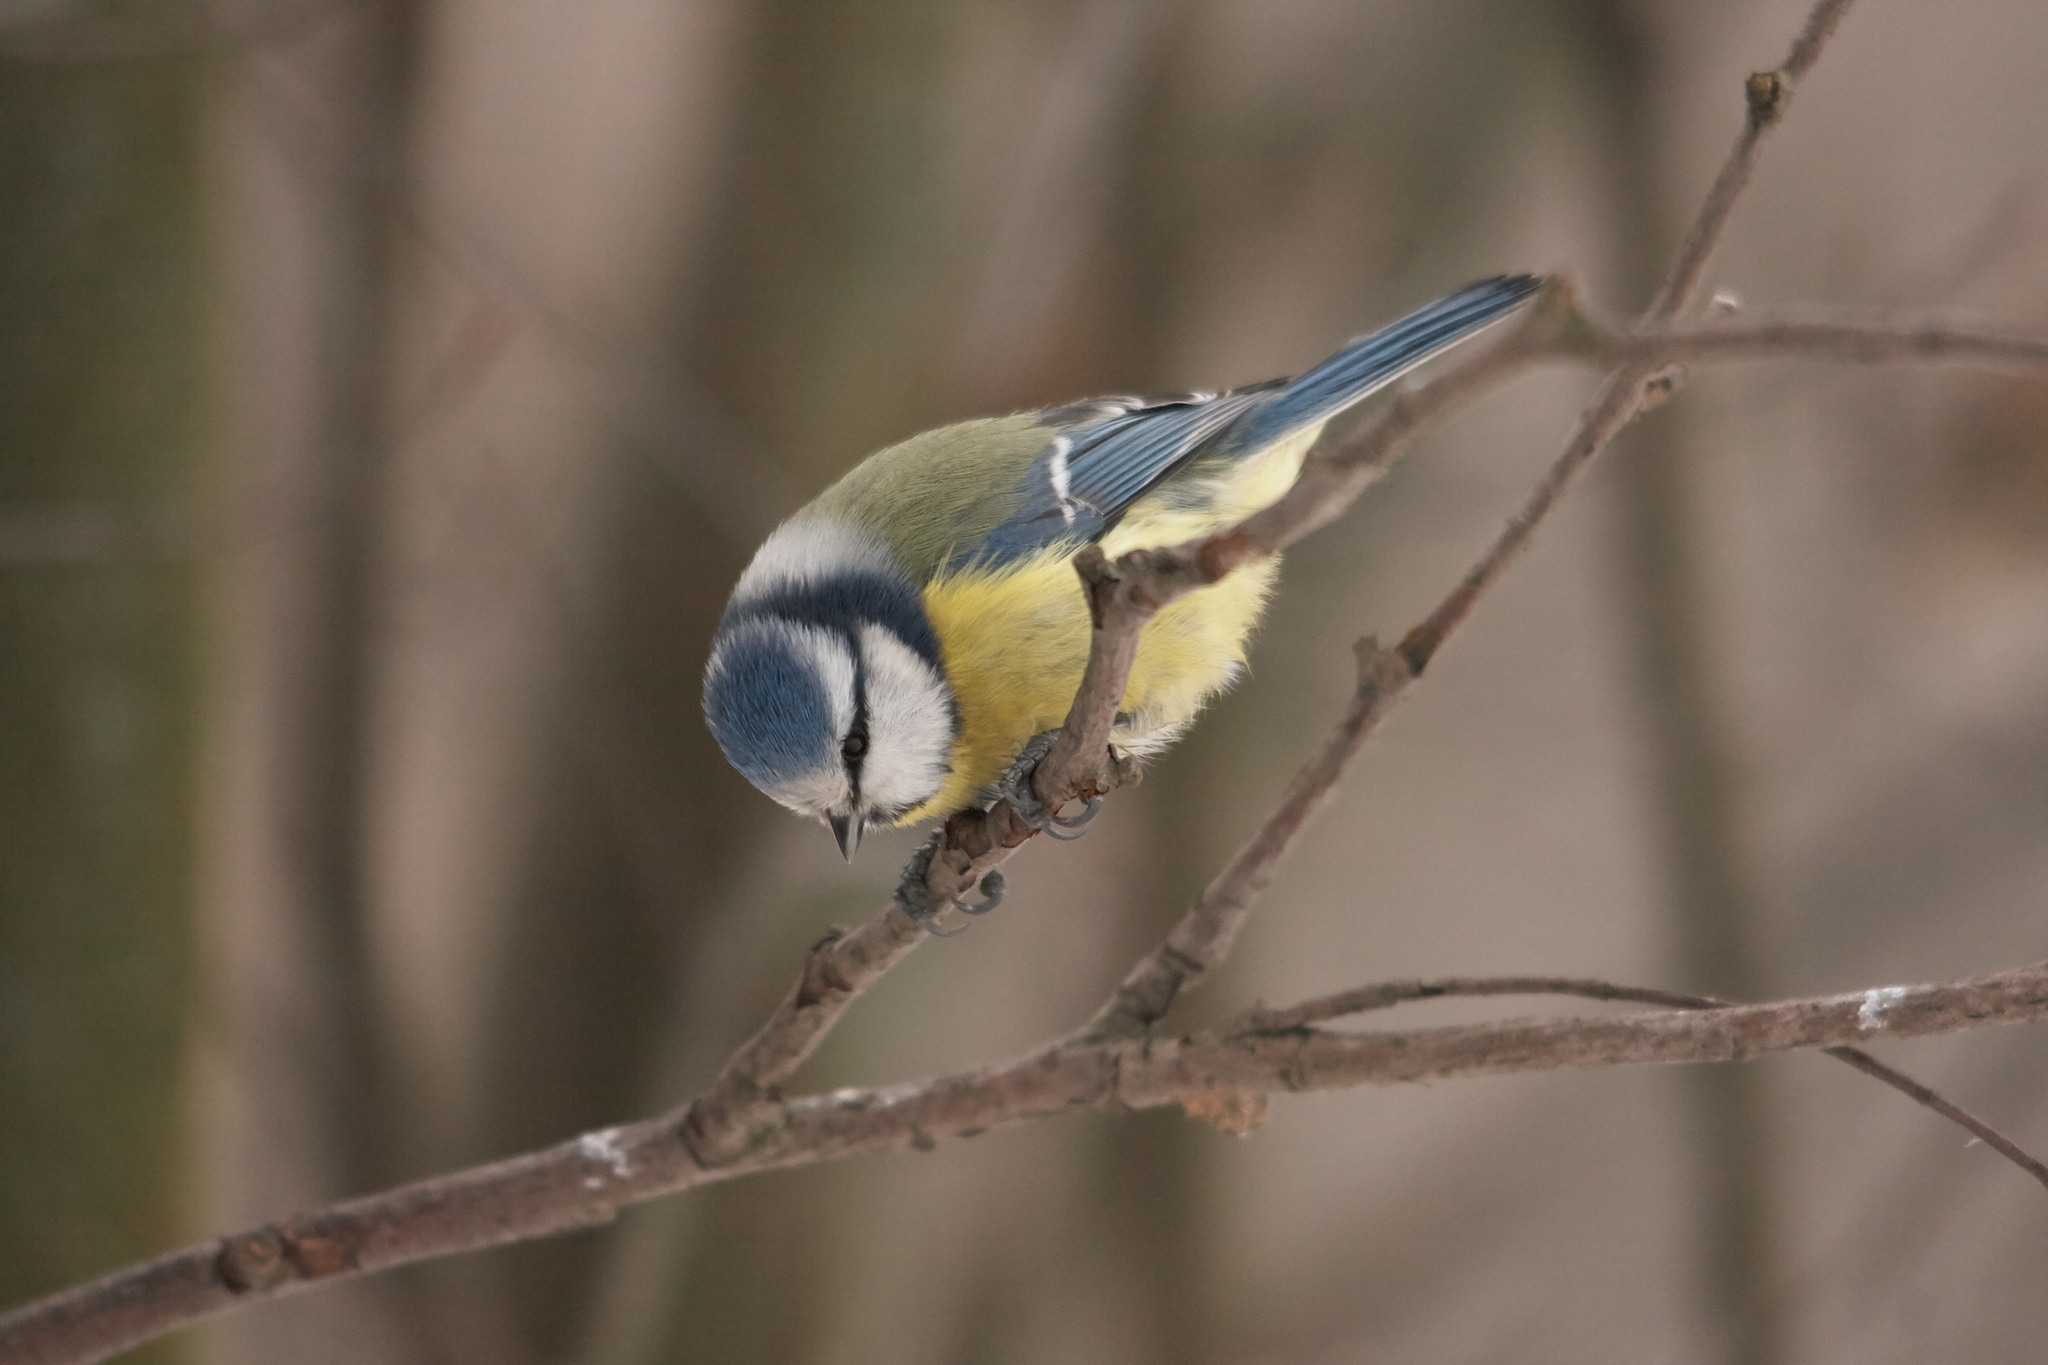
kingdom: Animalia
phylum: Chordata
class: Aves
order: Passeriformes
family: Paridae
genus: Cyanistes
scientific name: Cyanistes caeruleus
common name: Eurasian blue tit
